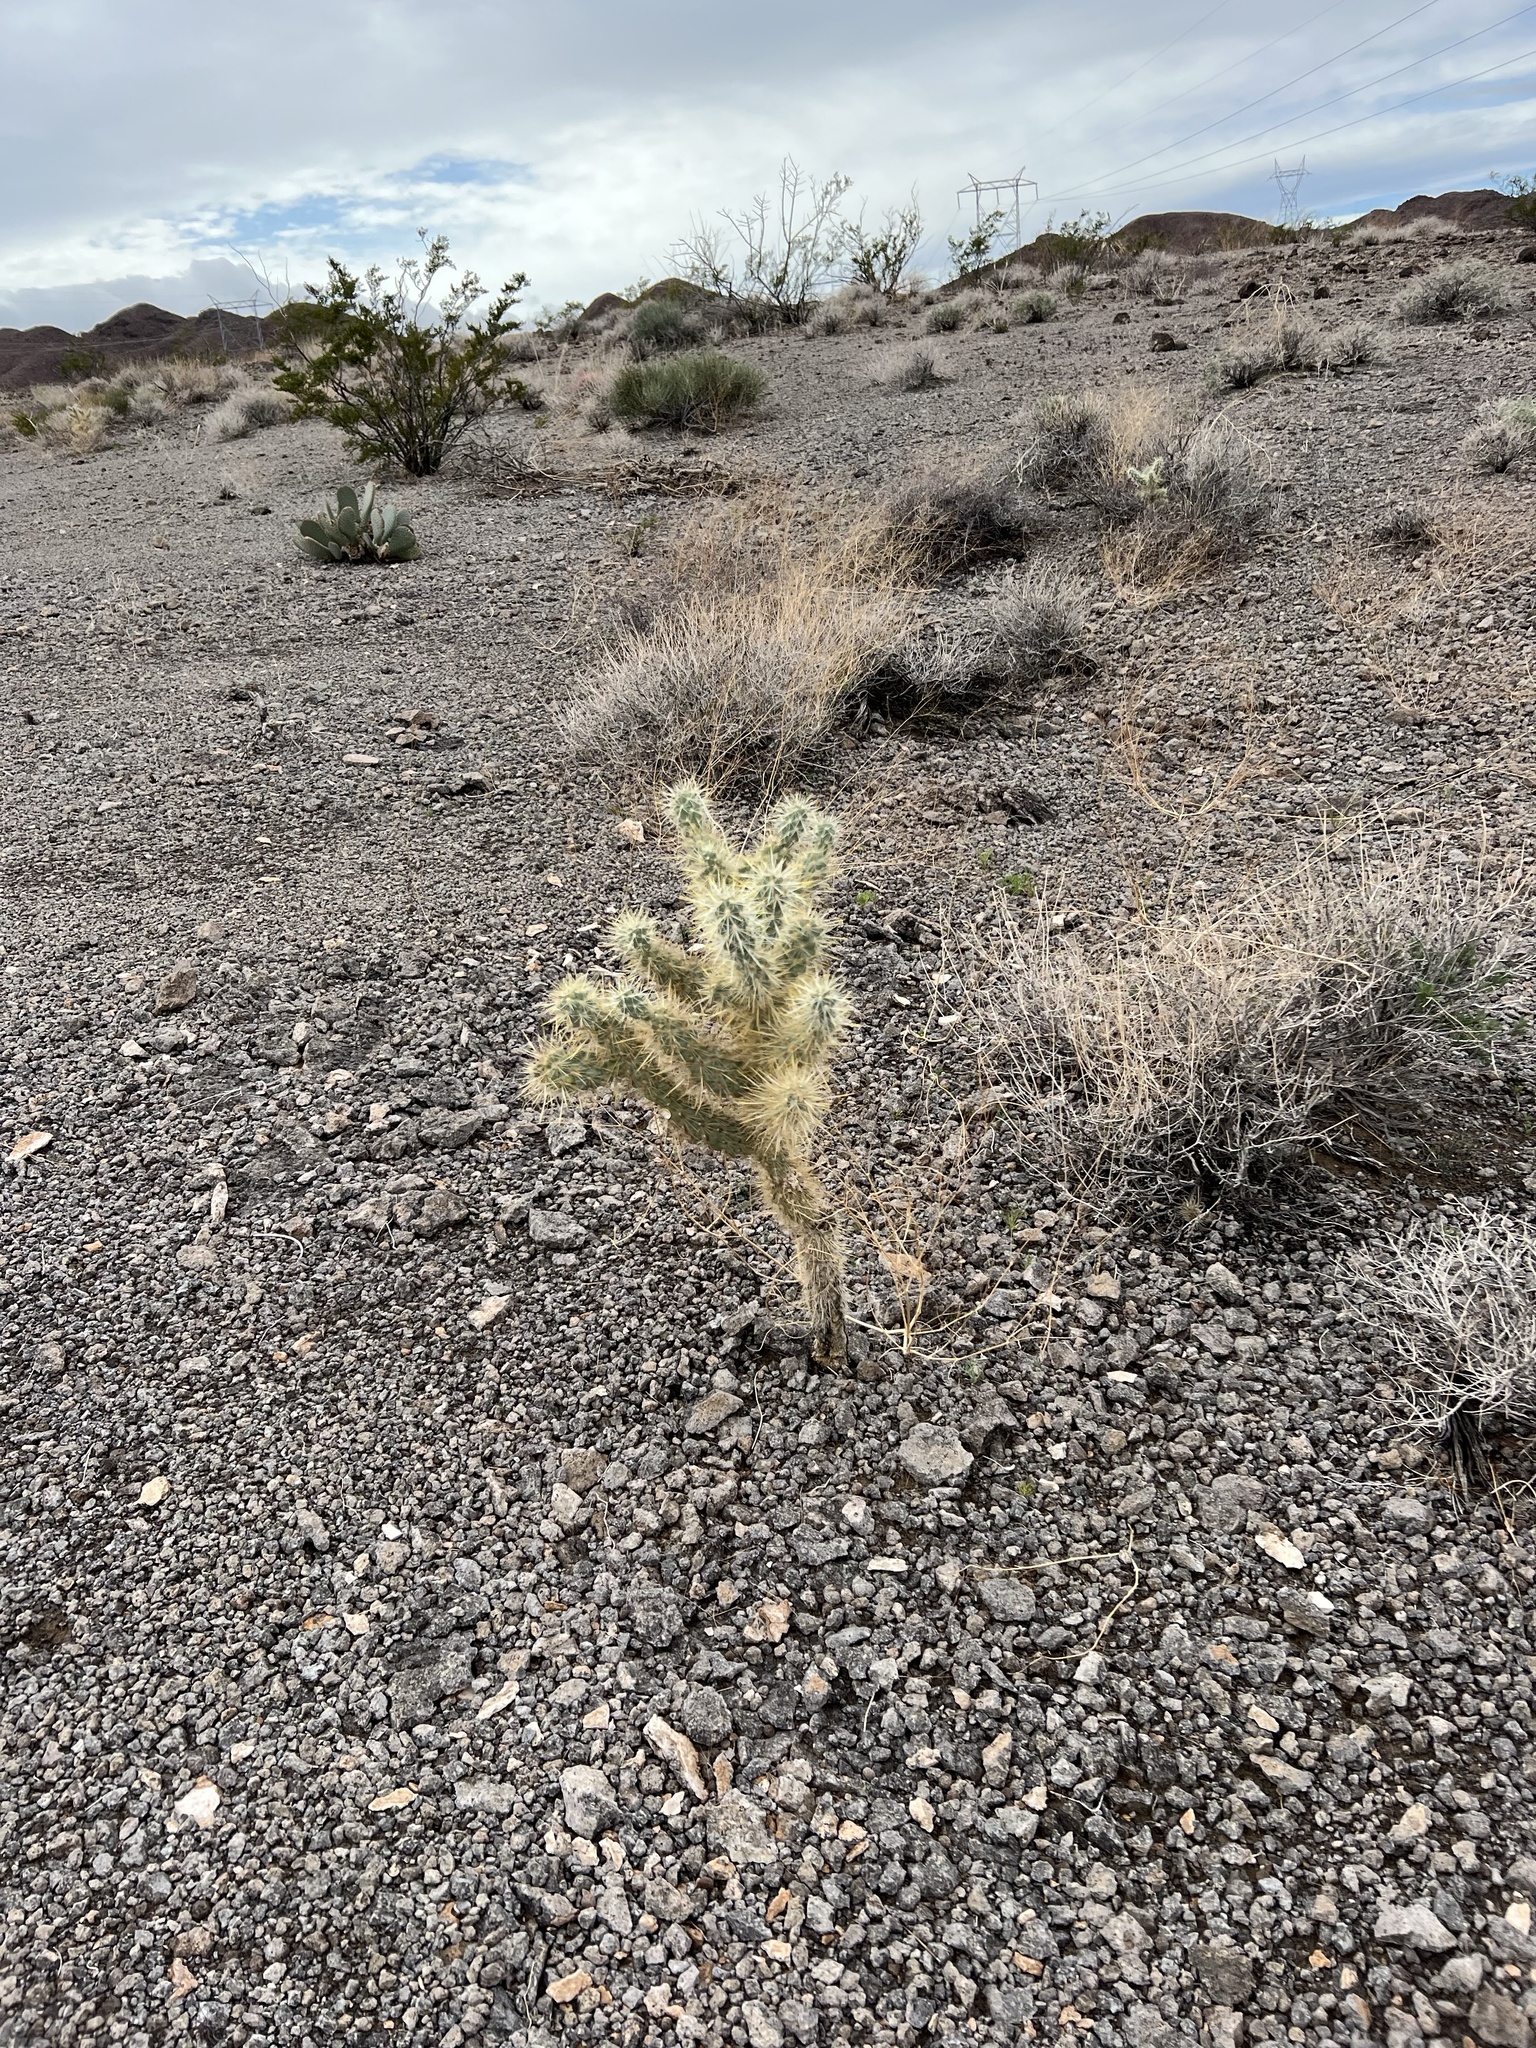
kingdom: Plantae
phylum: Tracheophyta
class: Magnoliopsida
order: Caryophyllales
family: Cactaceae
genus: Cylindropuntia
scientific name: Cylindropuntia echinocarpa
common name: Ground cholla
